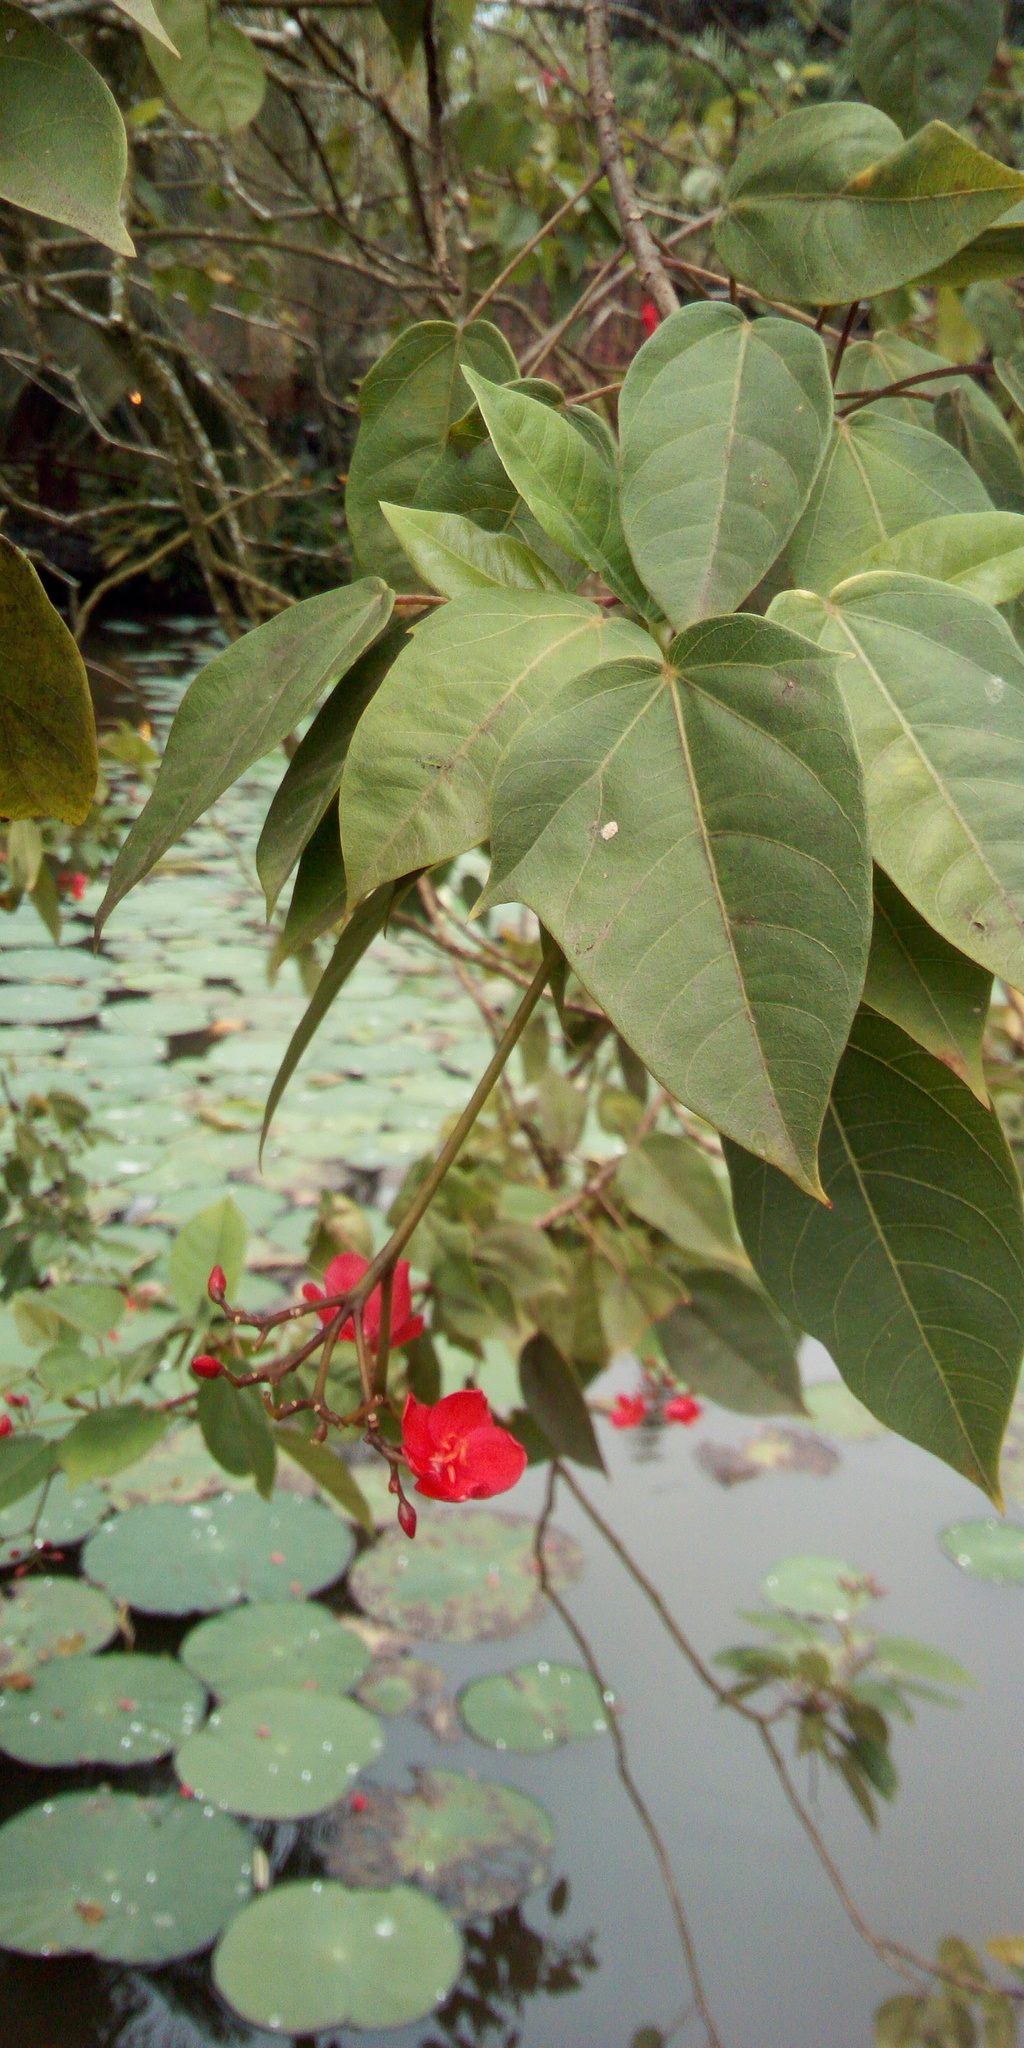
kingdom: Plantae
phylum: Tracheophyta
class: Magnoliopsida
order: Malpighiales
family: Euphorbiaceae
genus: Jatropha
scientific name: Jatropha integerrima
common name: Peregrina
